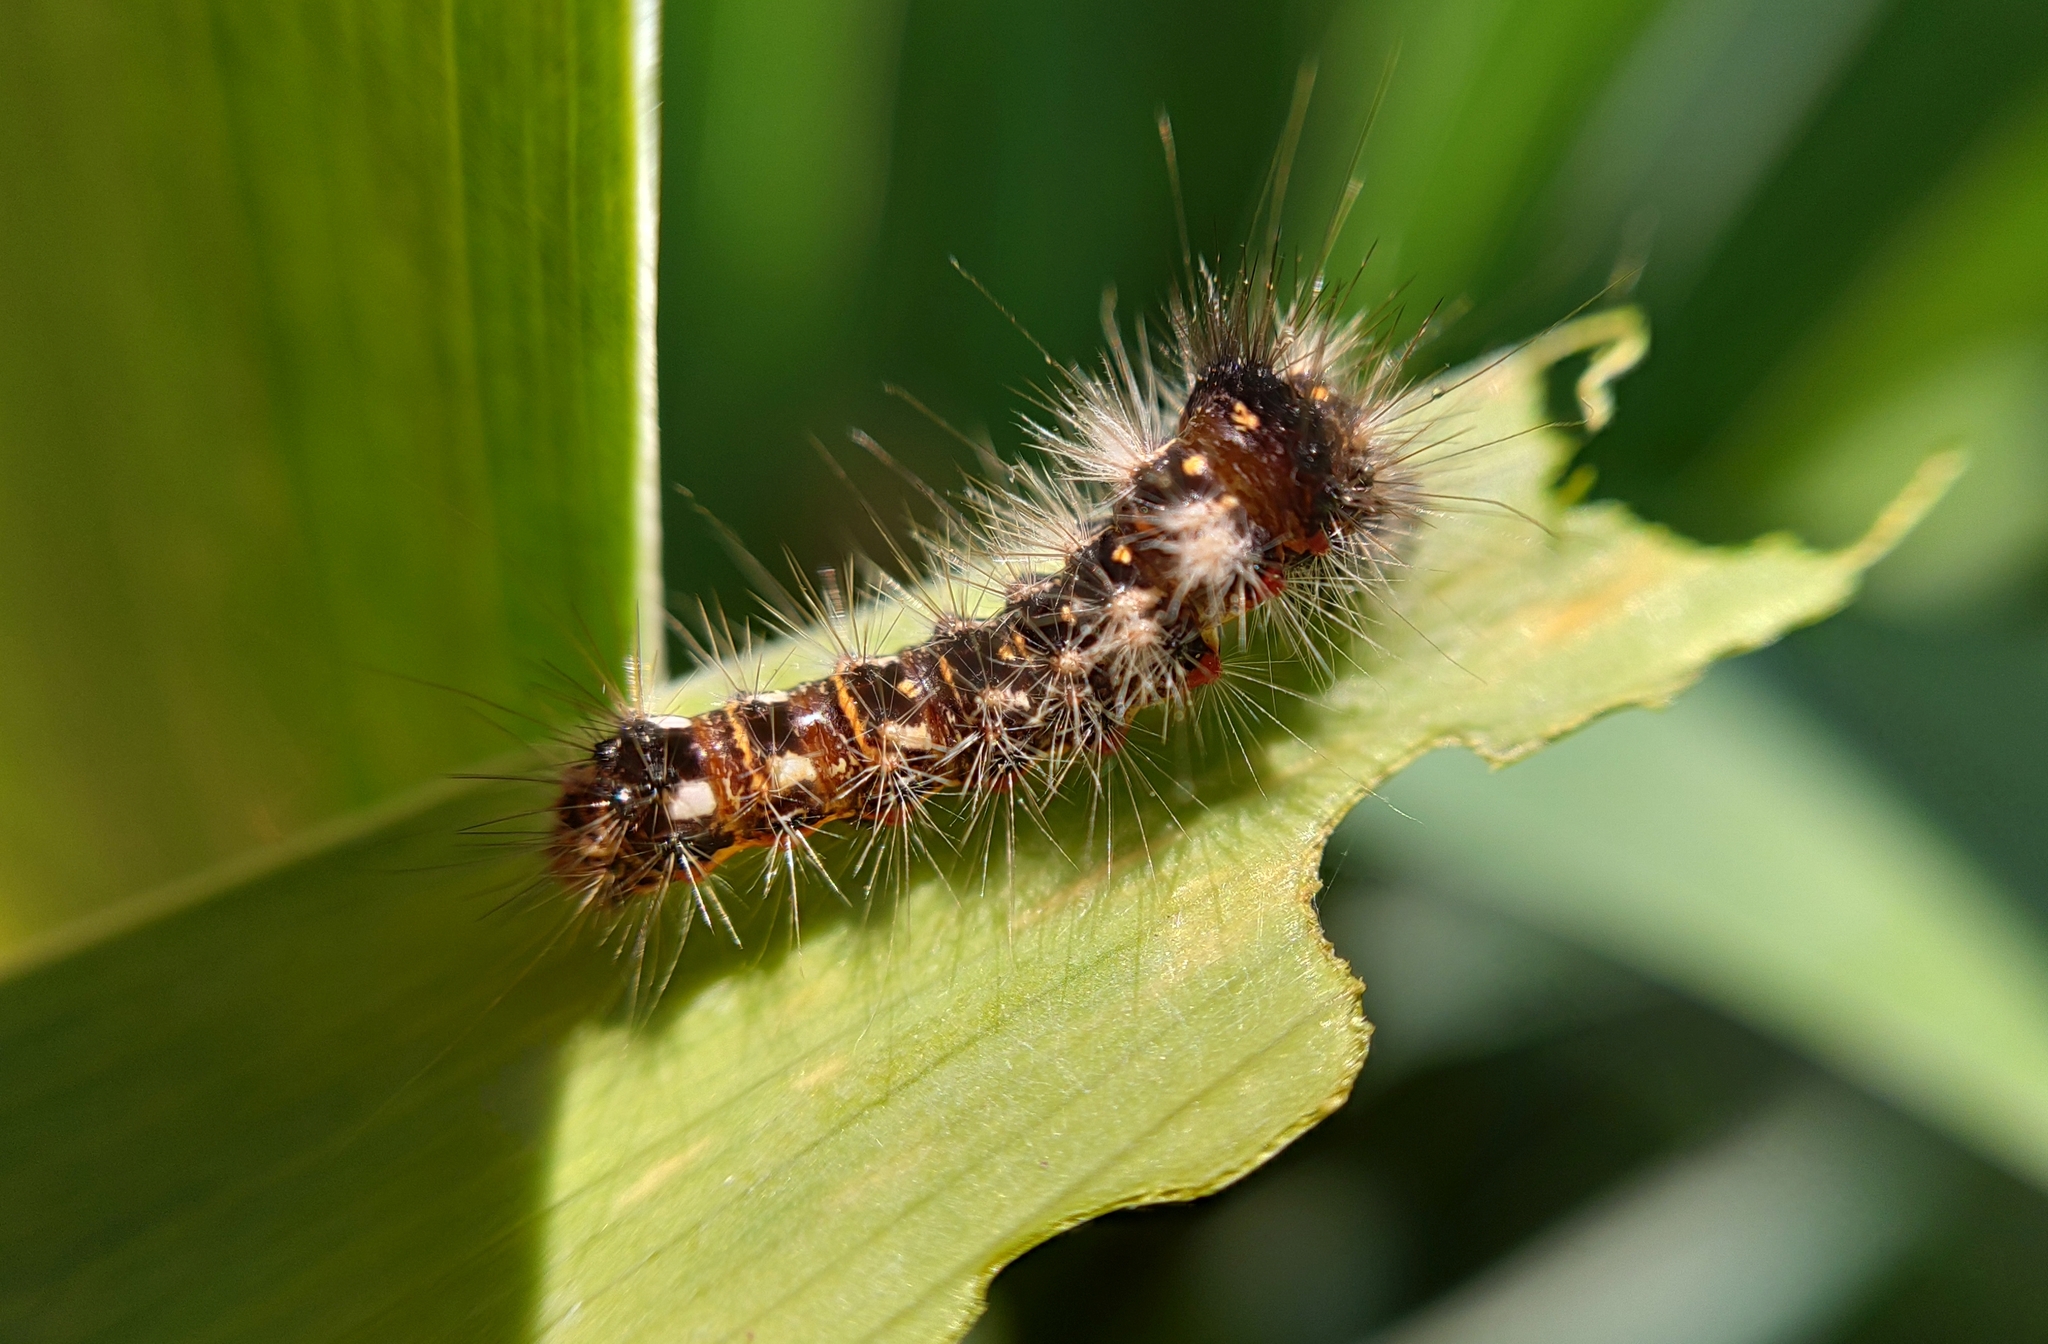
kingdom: Animalia
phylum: Arthropoda
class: Insecta
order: Lepidoptera
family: Noctuidae
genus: Acronicta
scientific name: Acronicta rumicis
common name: Knot grass
